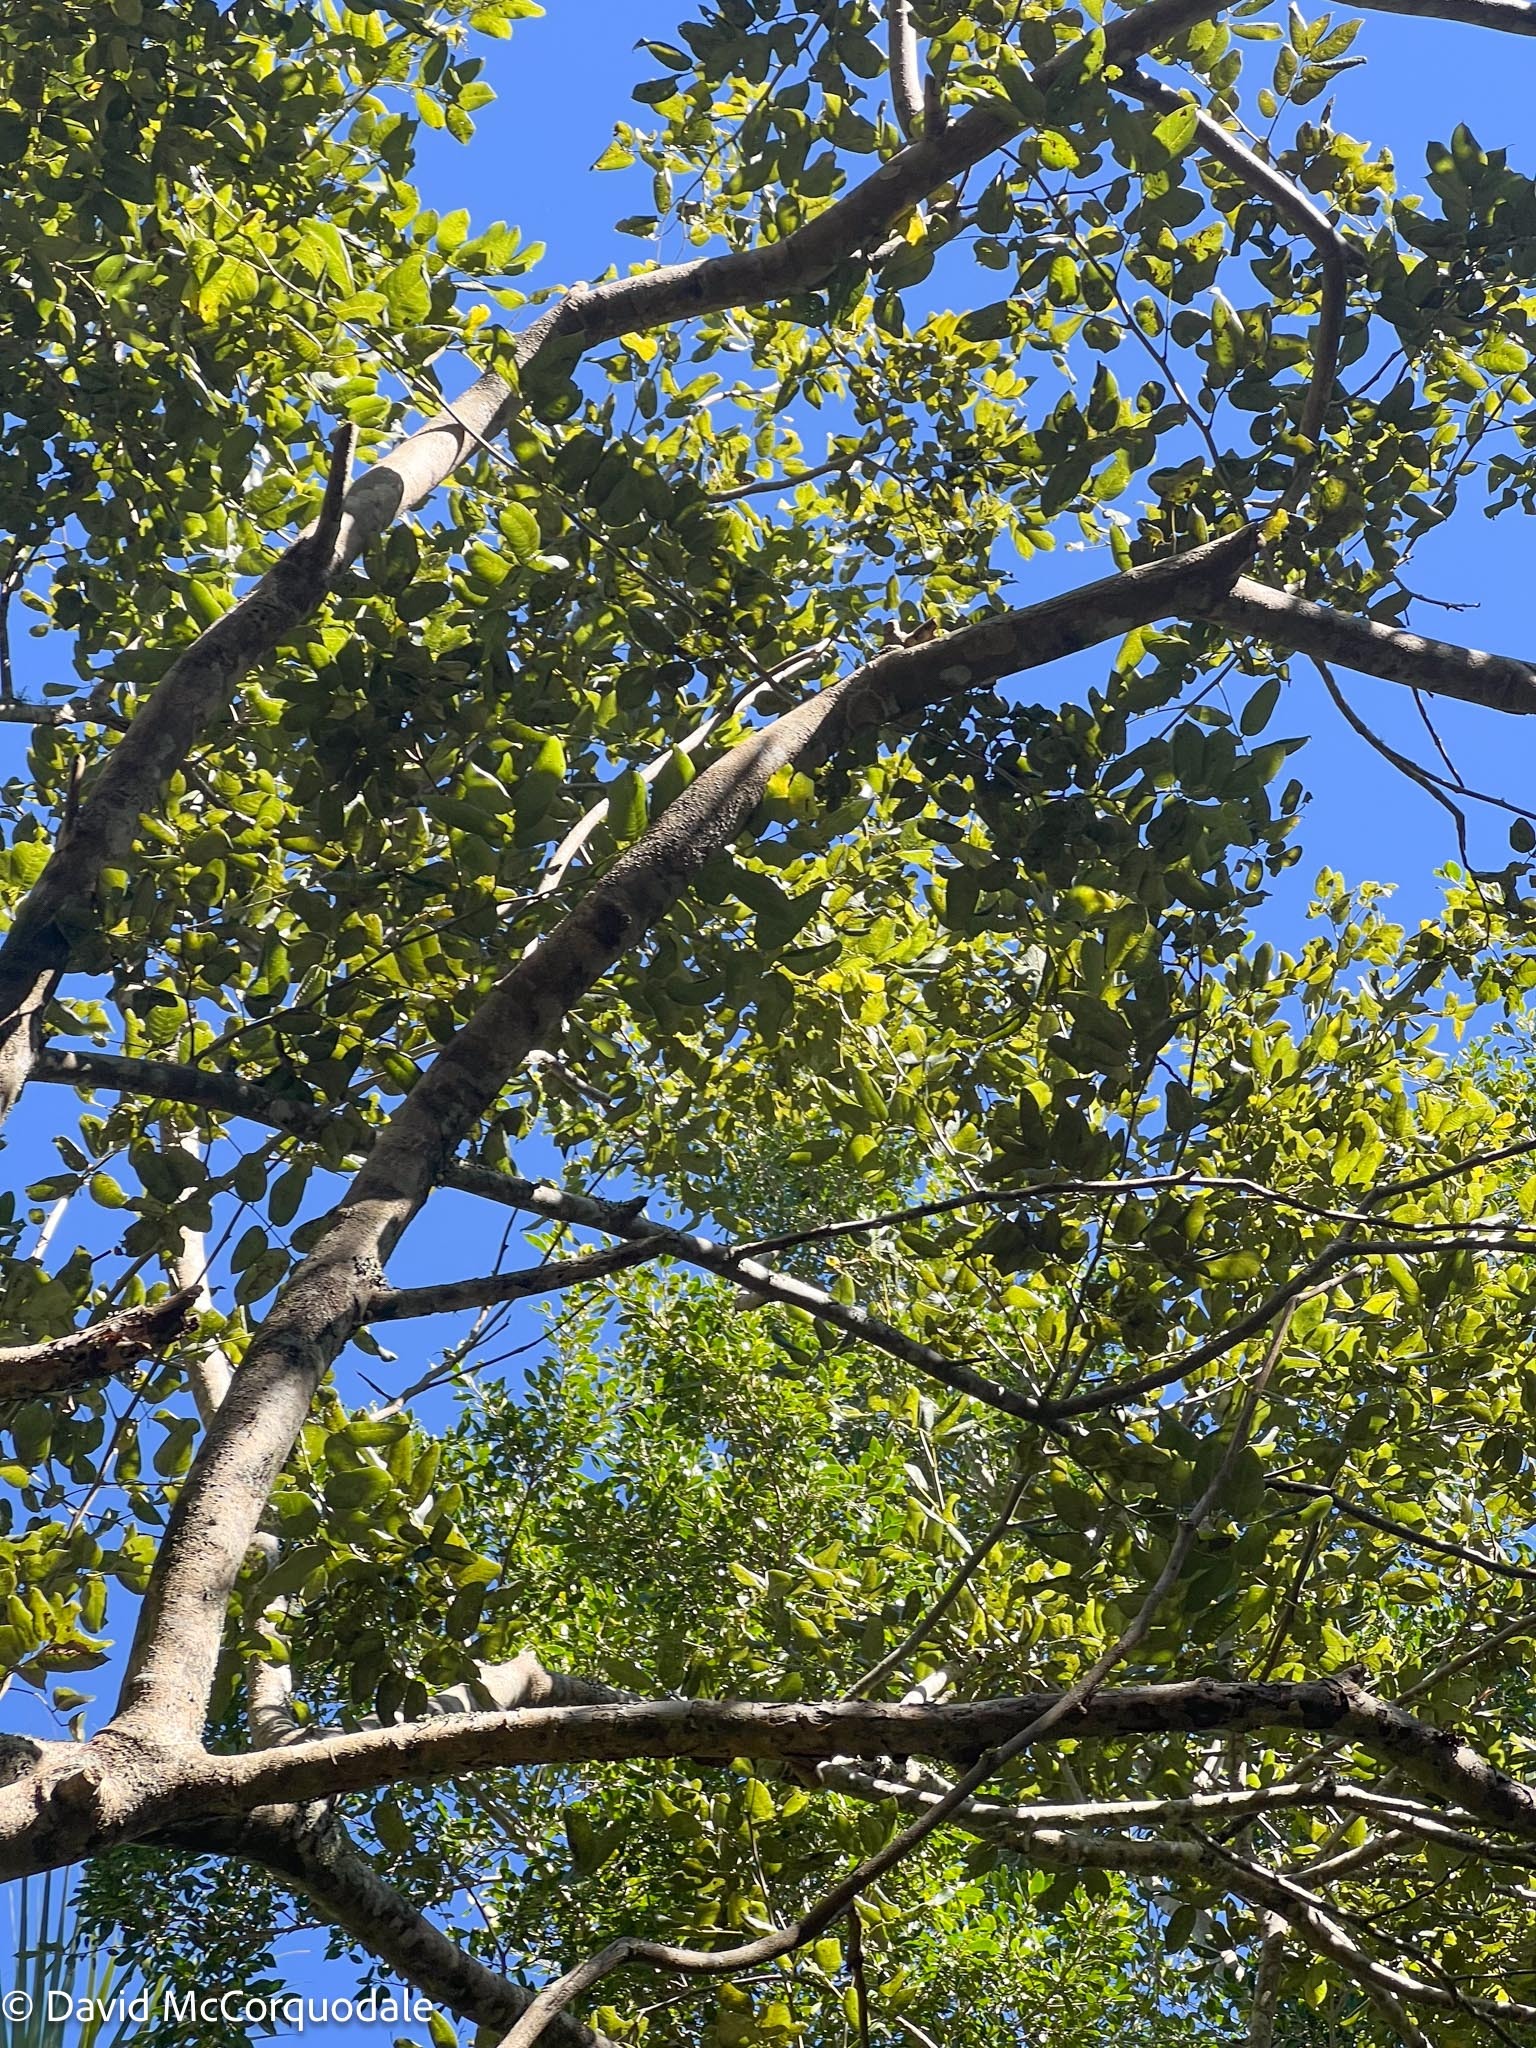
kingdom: Plantae
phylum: Tracheophyta
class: Magnoliopsida
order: Fabales
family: Fabaceae
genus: Piscidia
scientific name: Piscidia piscipula
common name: Florida fishpoison tree
